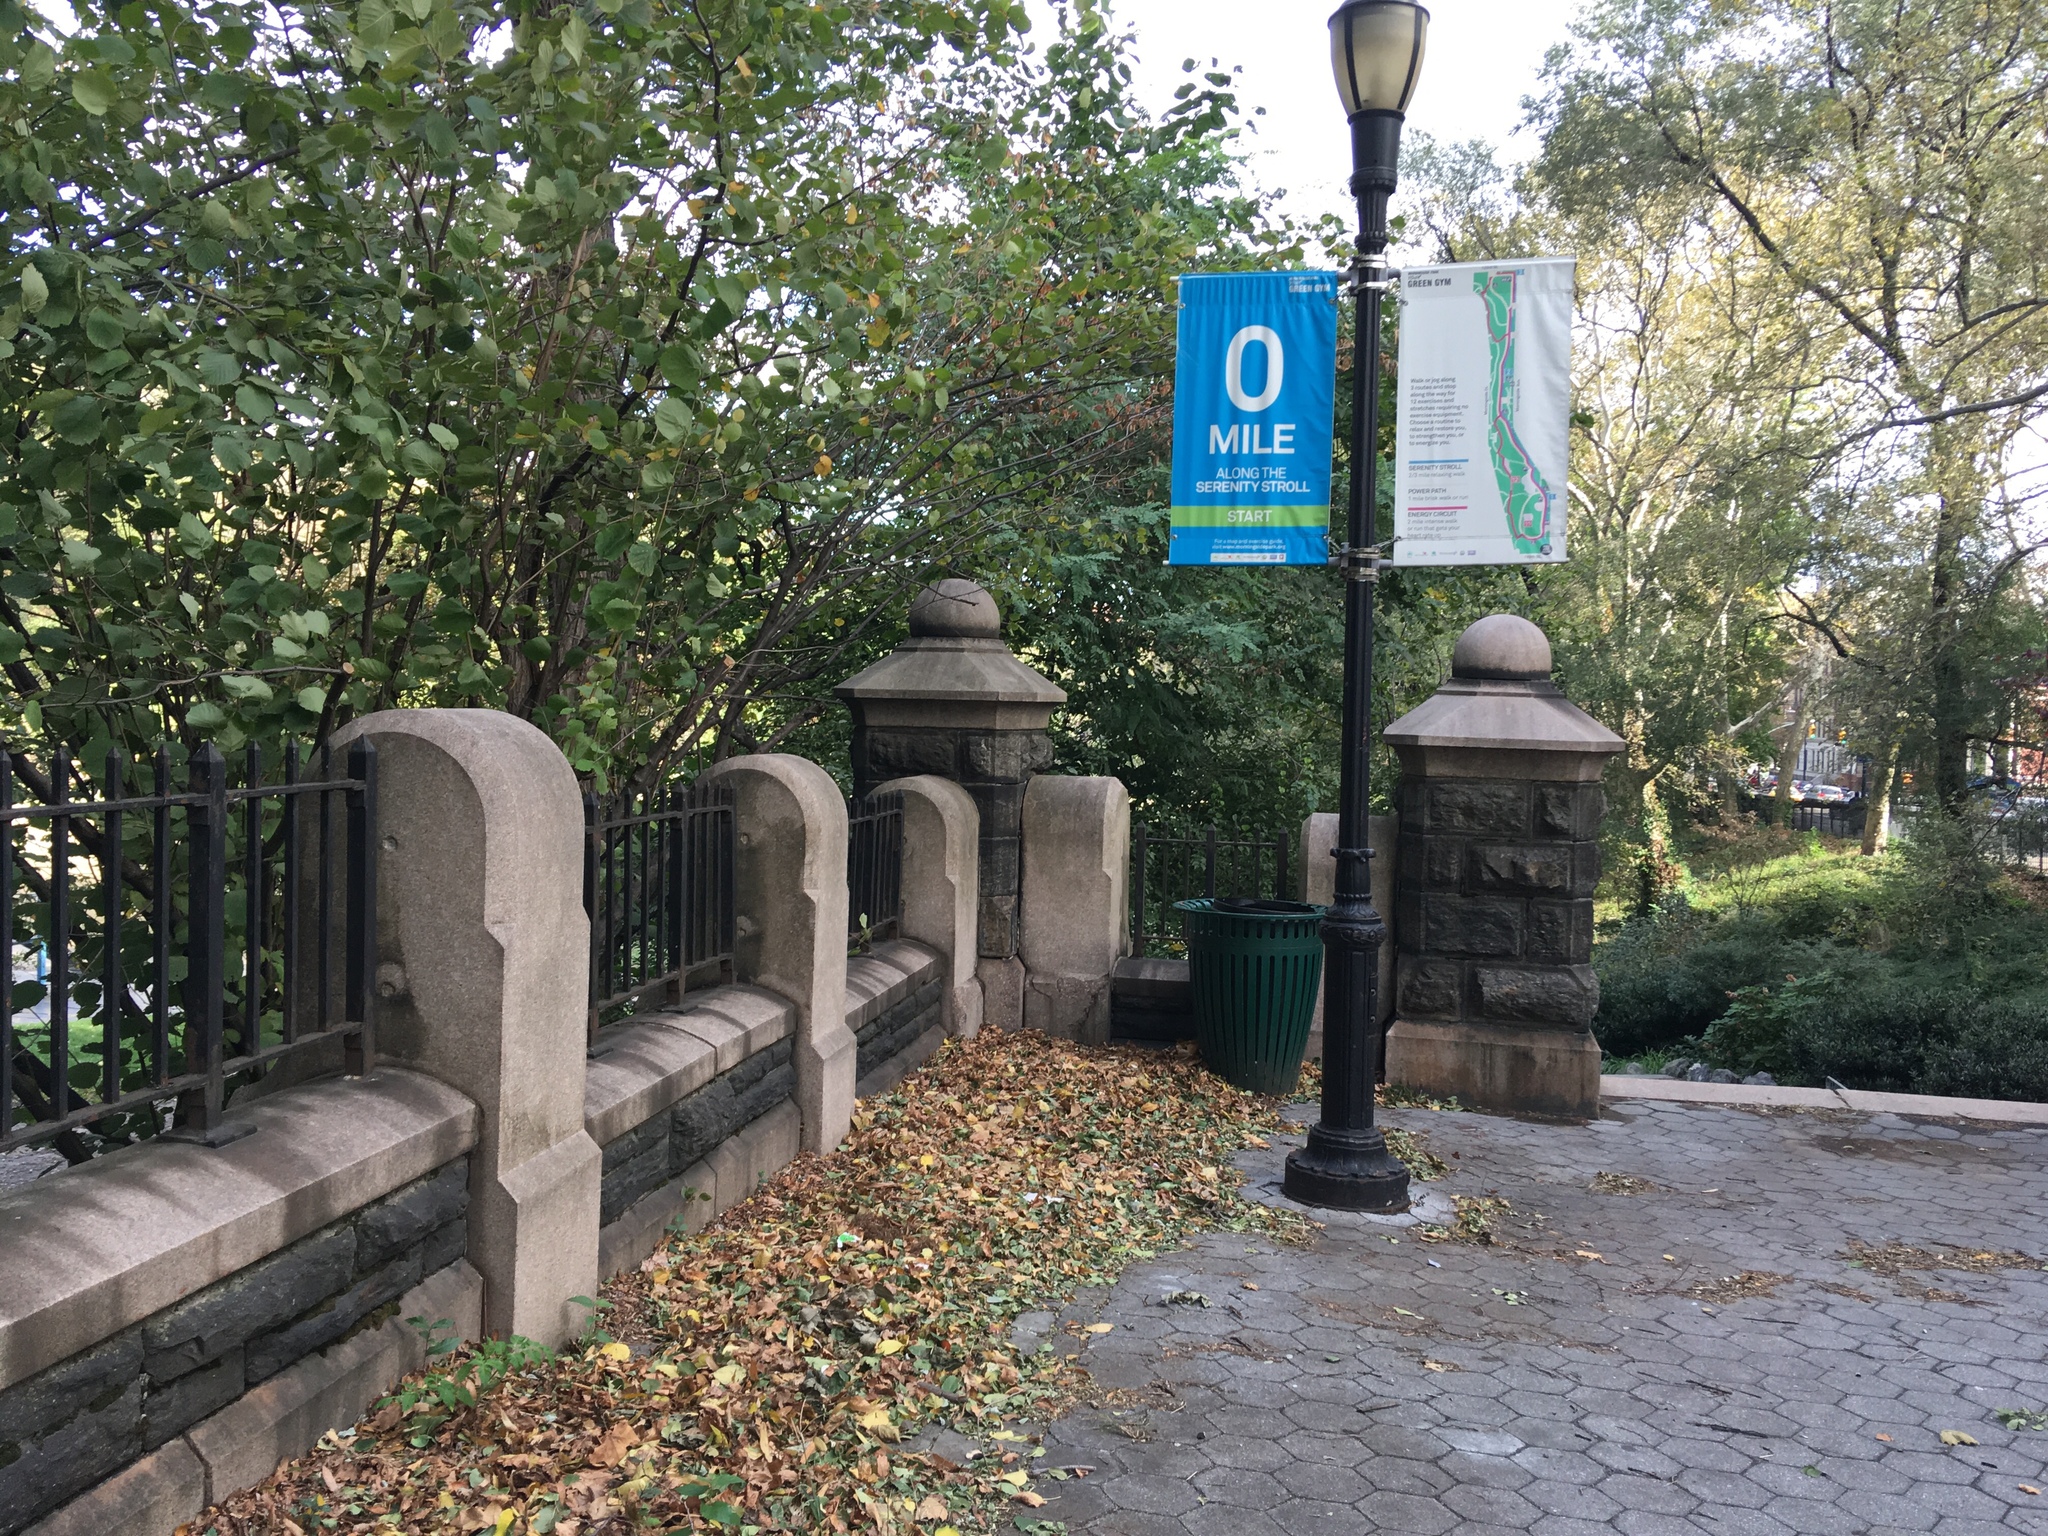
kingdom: Plantae
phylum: Tracheophyta
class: Magnoliopsida
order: Solanales
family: Solanaceae
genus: Solanum
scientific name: Solanum lycopersicum
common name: Garden tomato
